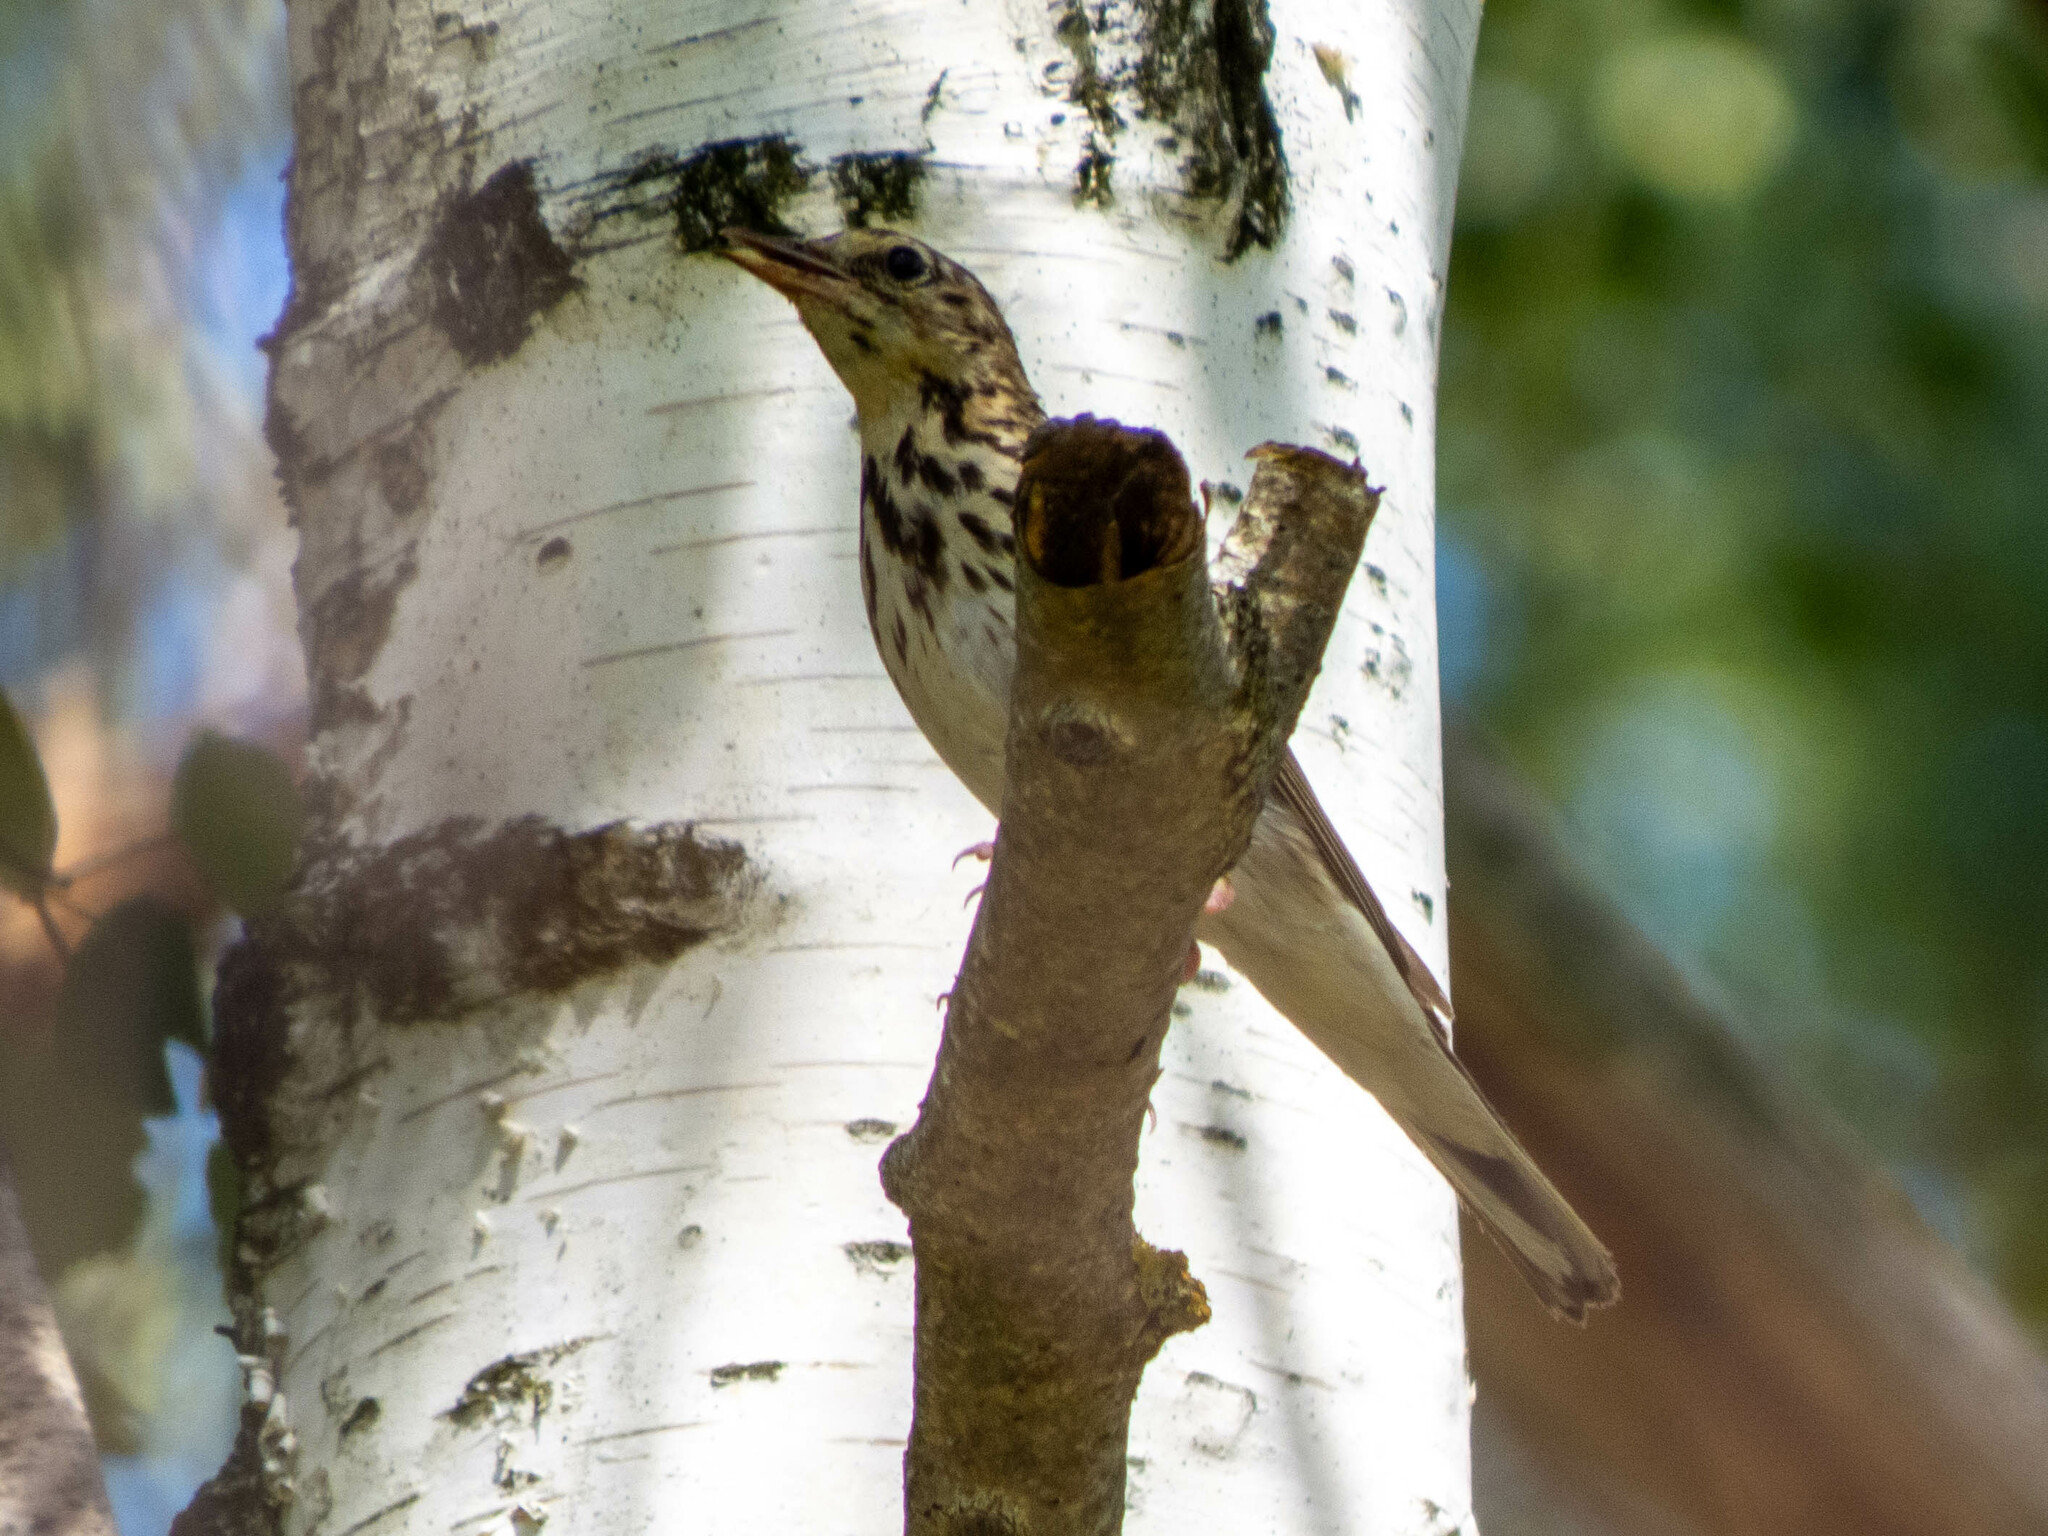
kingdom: Animalia
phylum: Chordata
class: Aves
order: Passeriformes
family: Motacillidae
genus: Anthus
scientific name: Anthus trivialis
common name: Tree pipit
